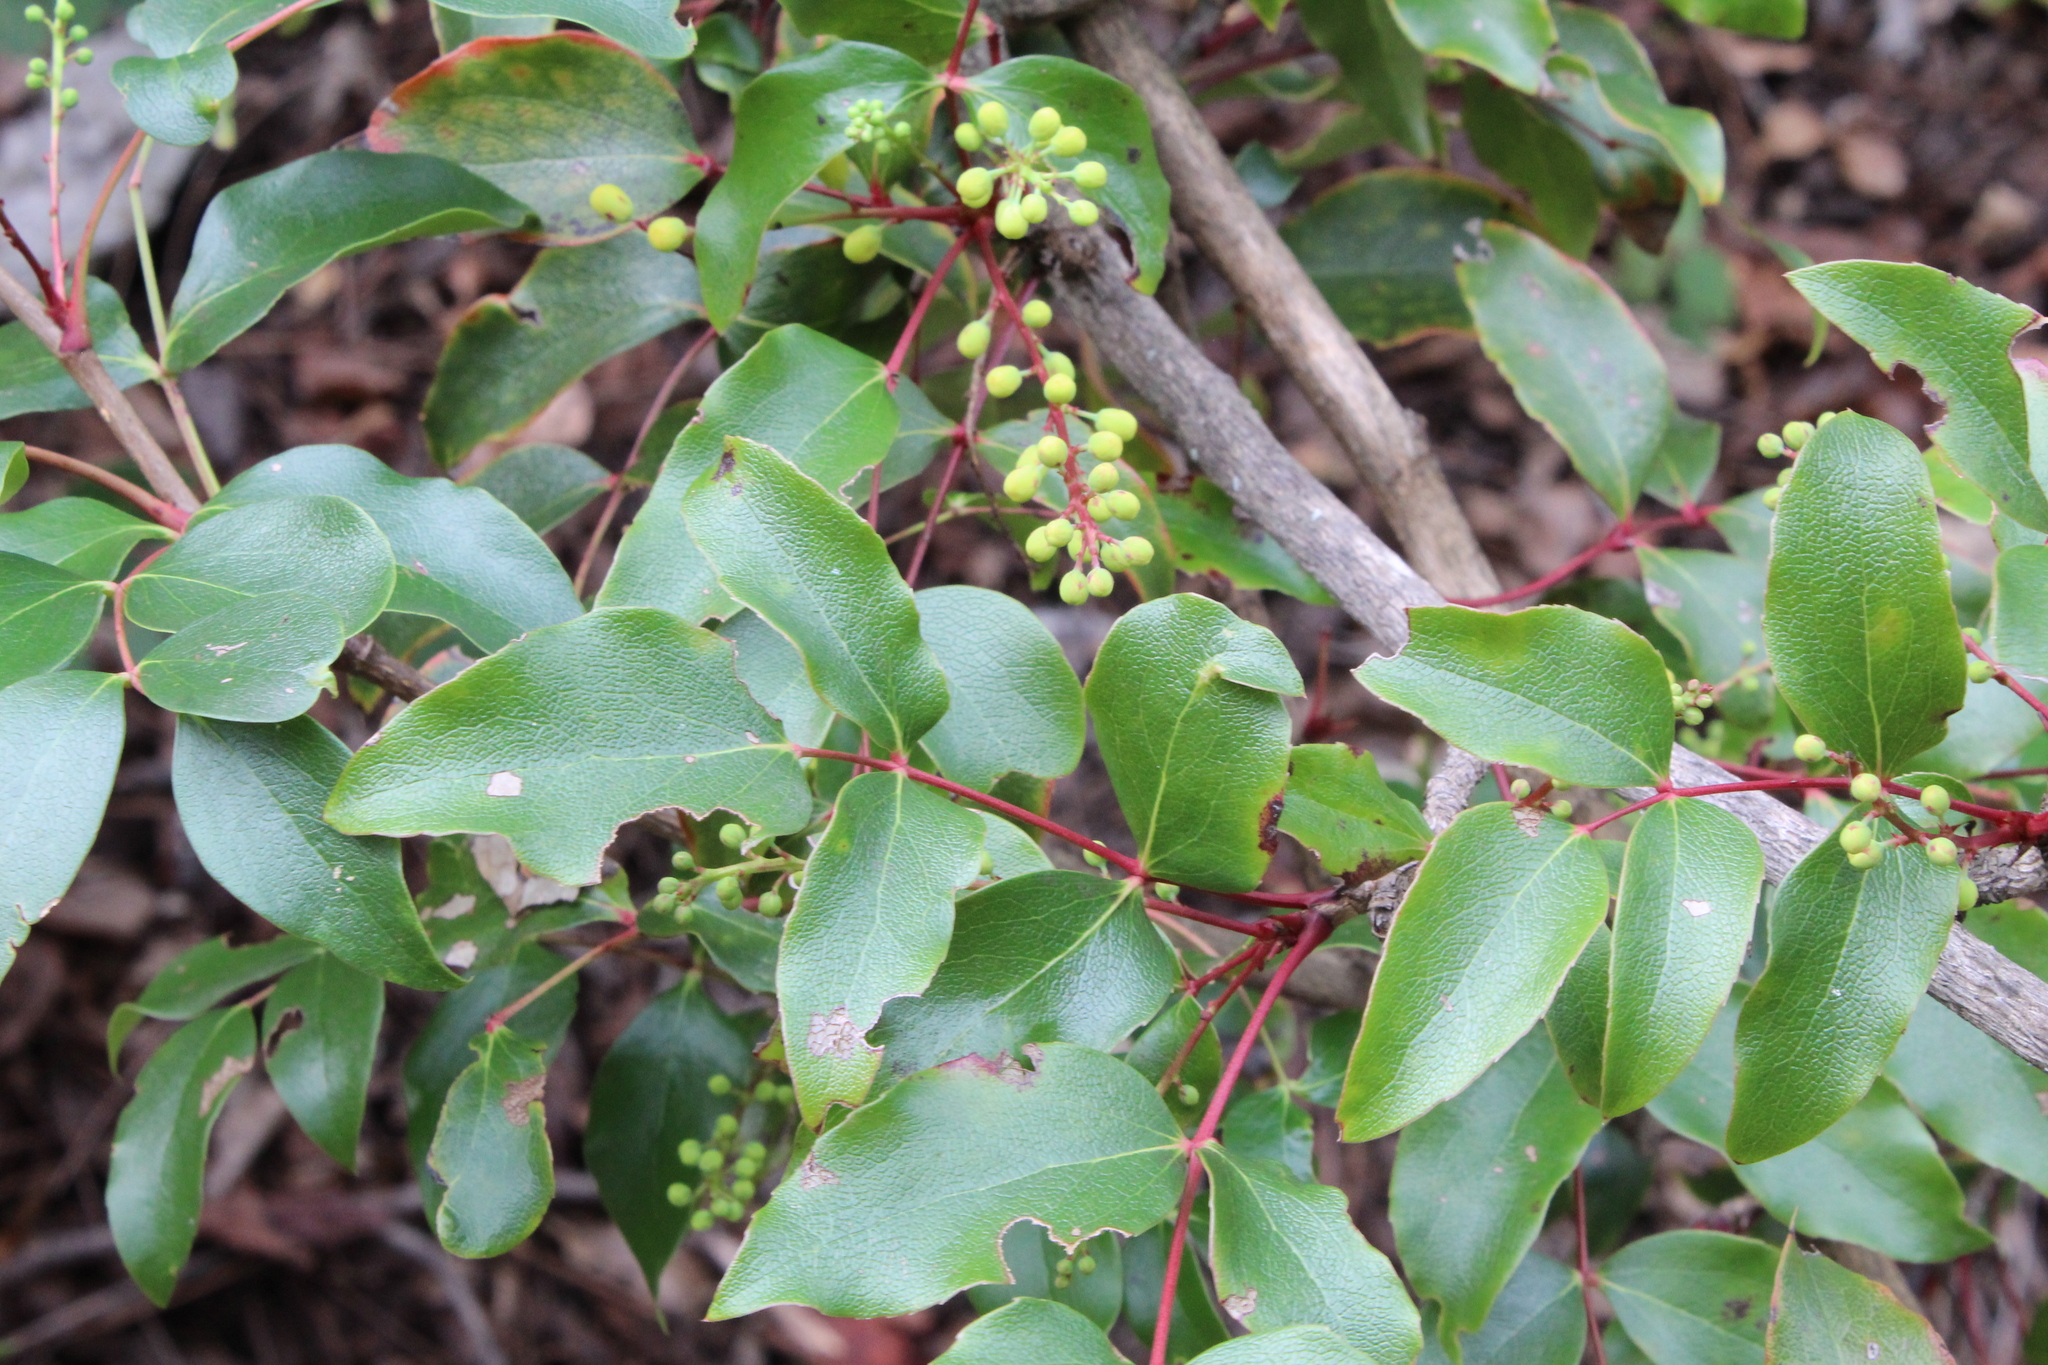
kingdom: Plantae
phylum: Tracheophyta
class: Magnoliopsida
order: Ranunculales
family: Berberidaceae
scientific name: Berberidaceae
